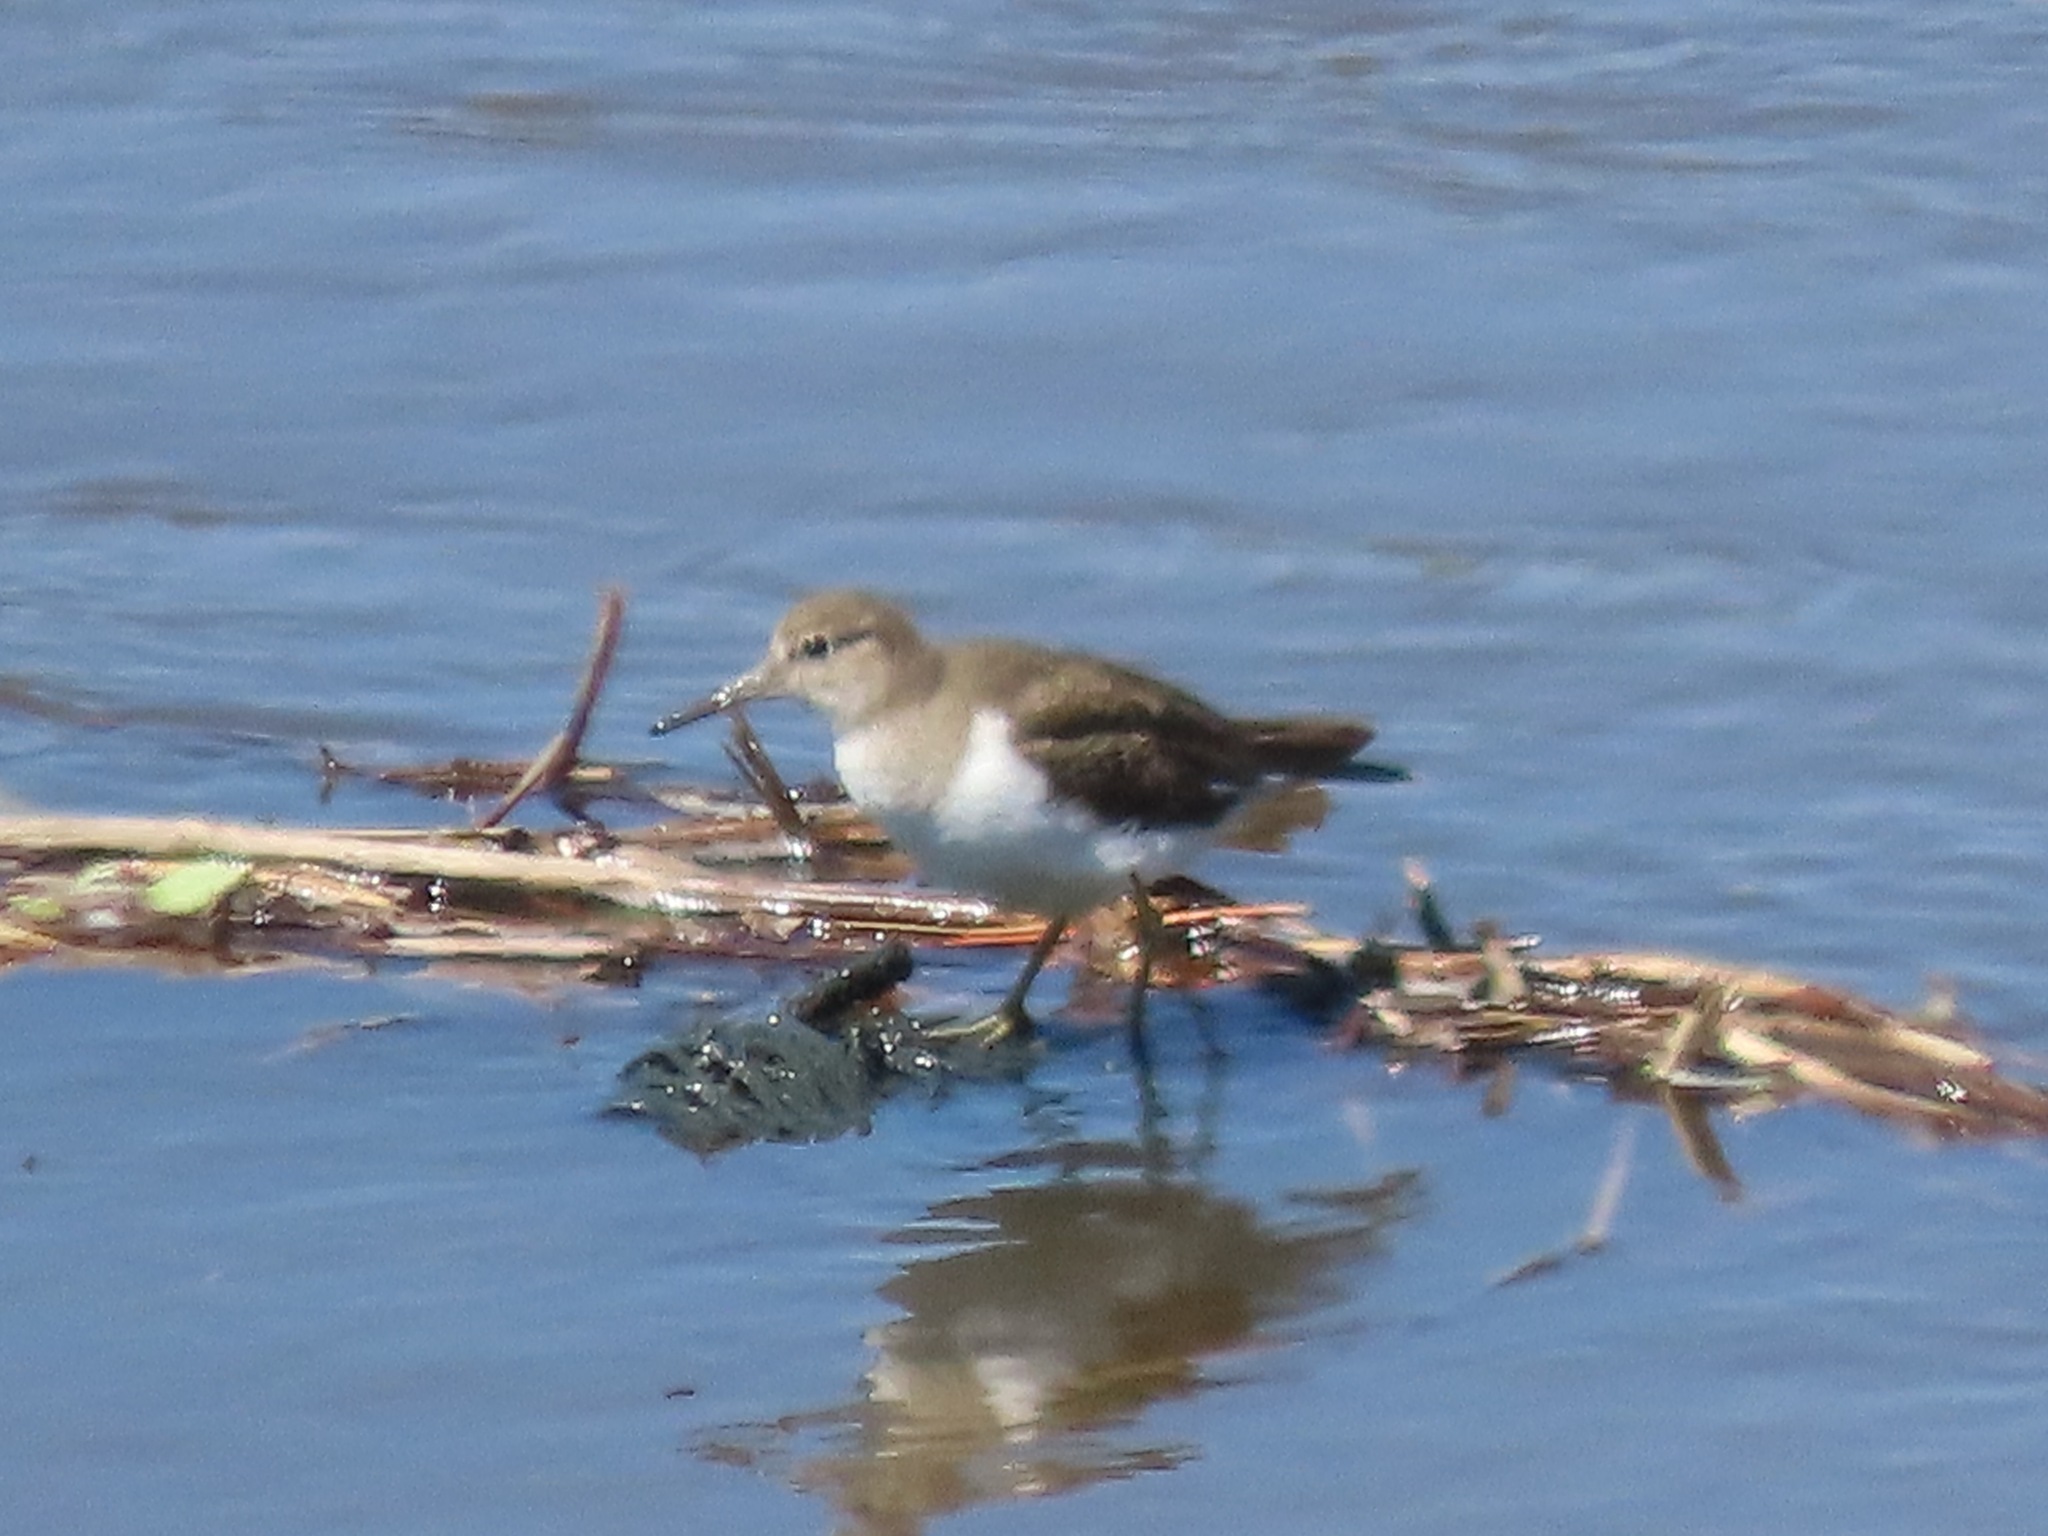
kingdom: Animalia
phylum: Chordata
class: Aves
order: Charadriiformes
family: Scolopacidae
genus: Actitis
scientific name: Actitis hypoleucos
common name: Common sandpiper
